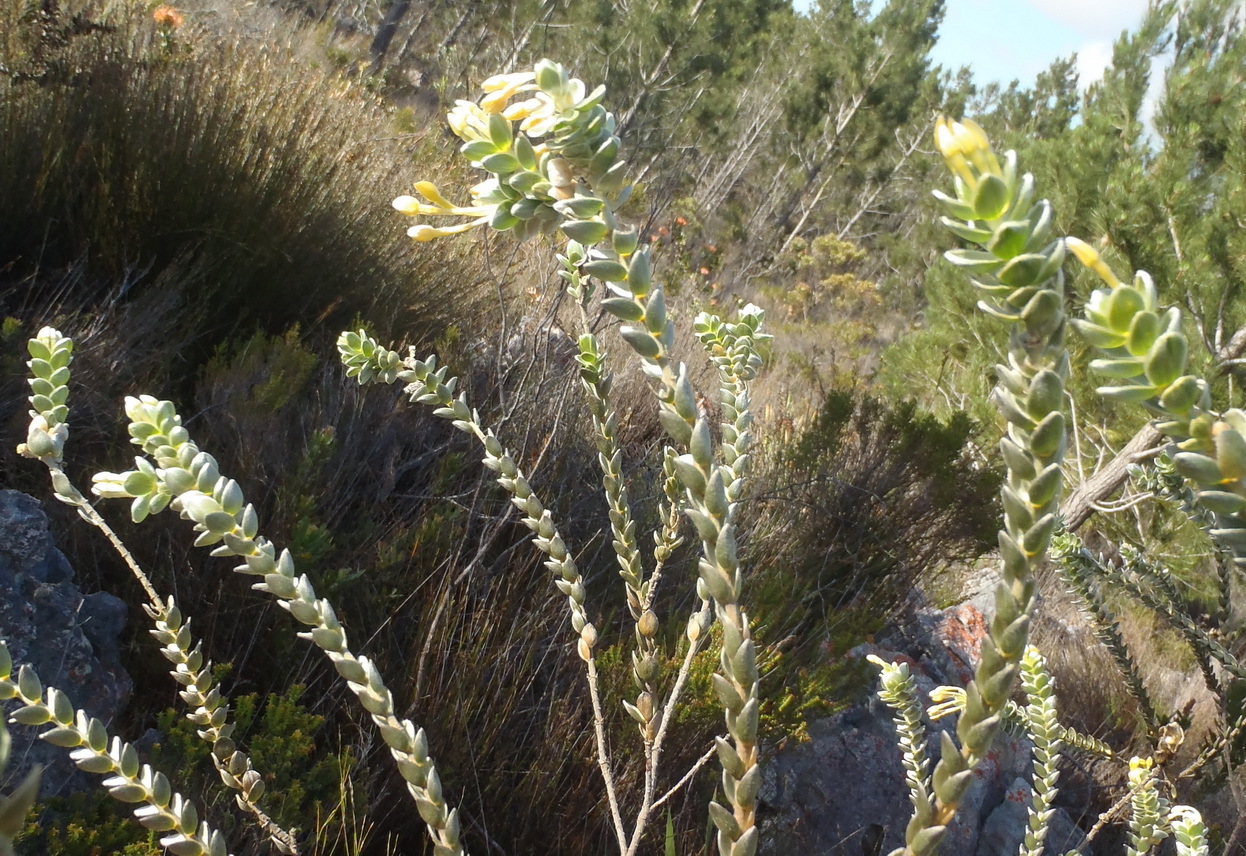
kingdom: Plantae
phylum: Tracheophyta
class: Magnoliopsida
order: Malvales
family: Thymelaeaceae
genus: Gnidia
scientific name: Gnidia anomala
